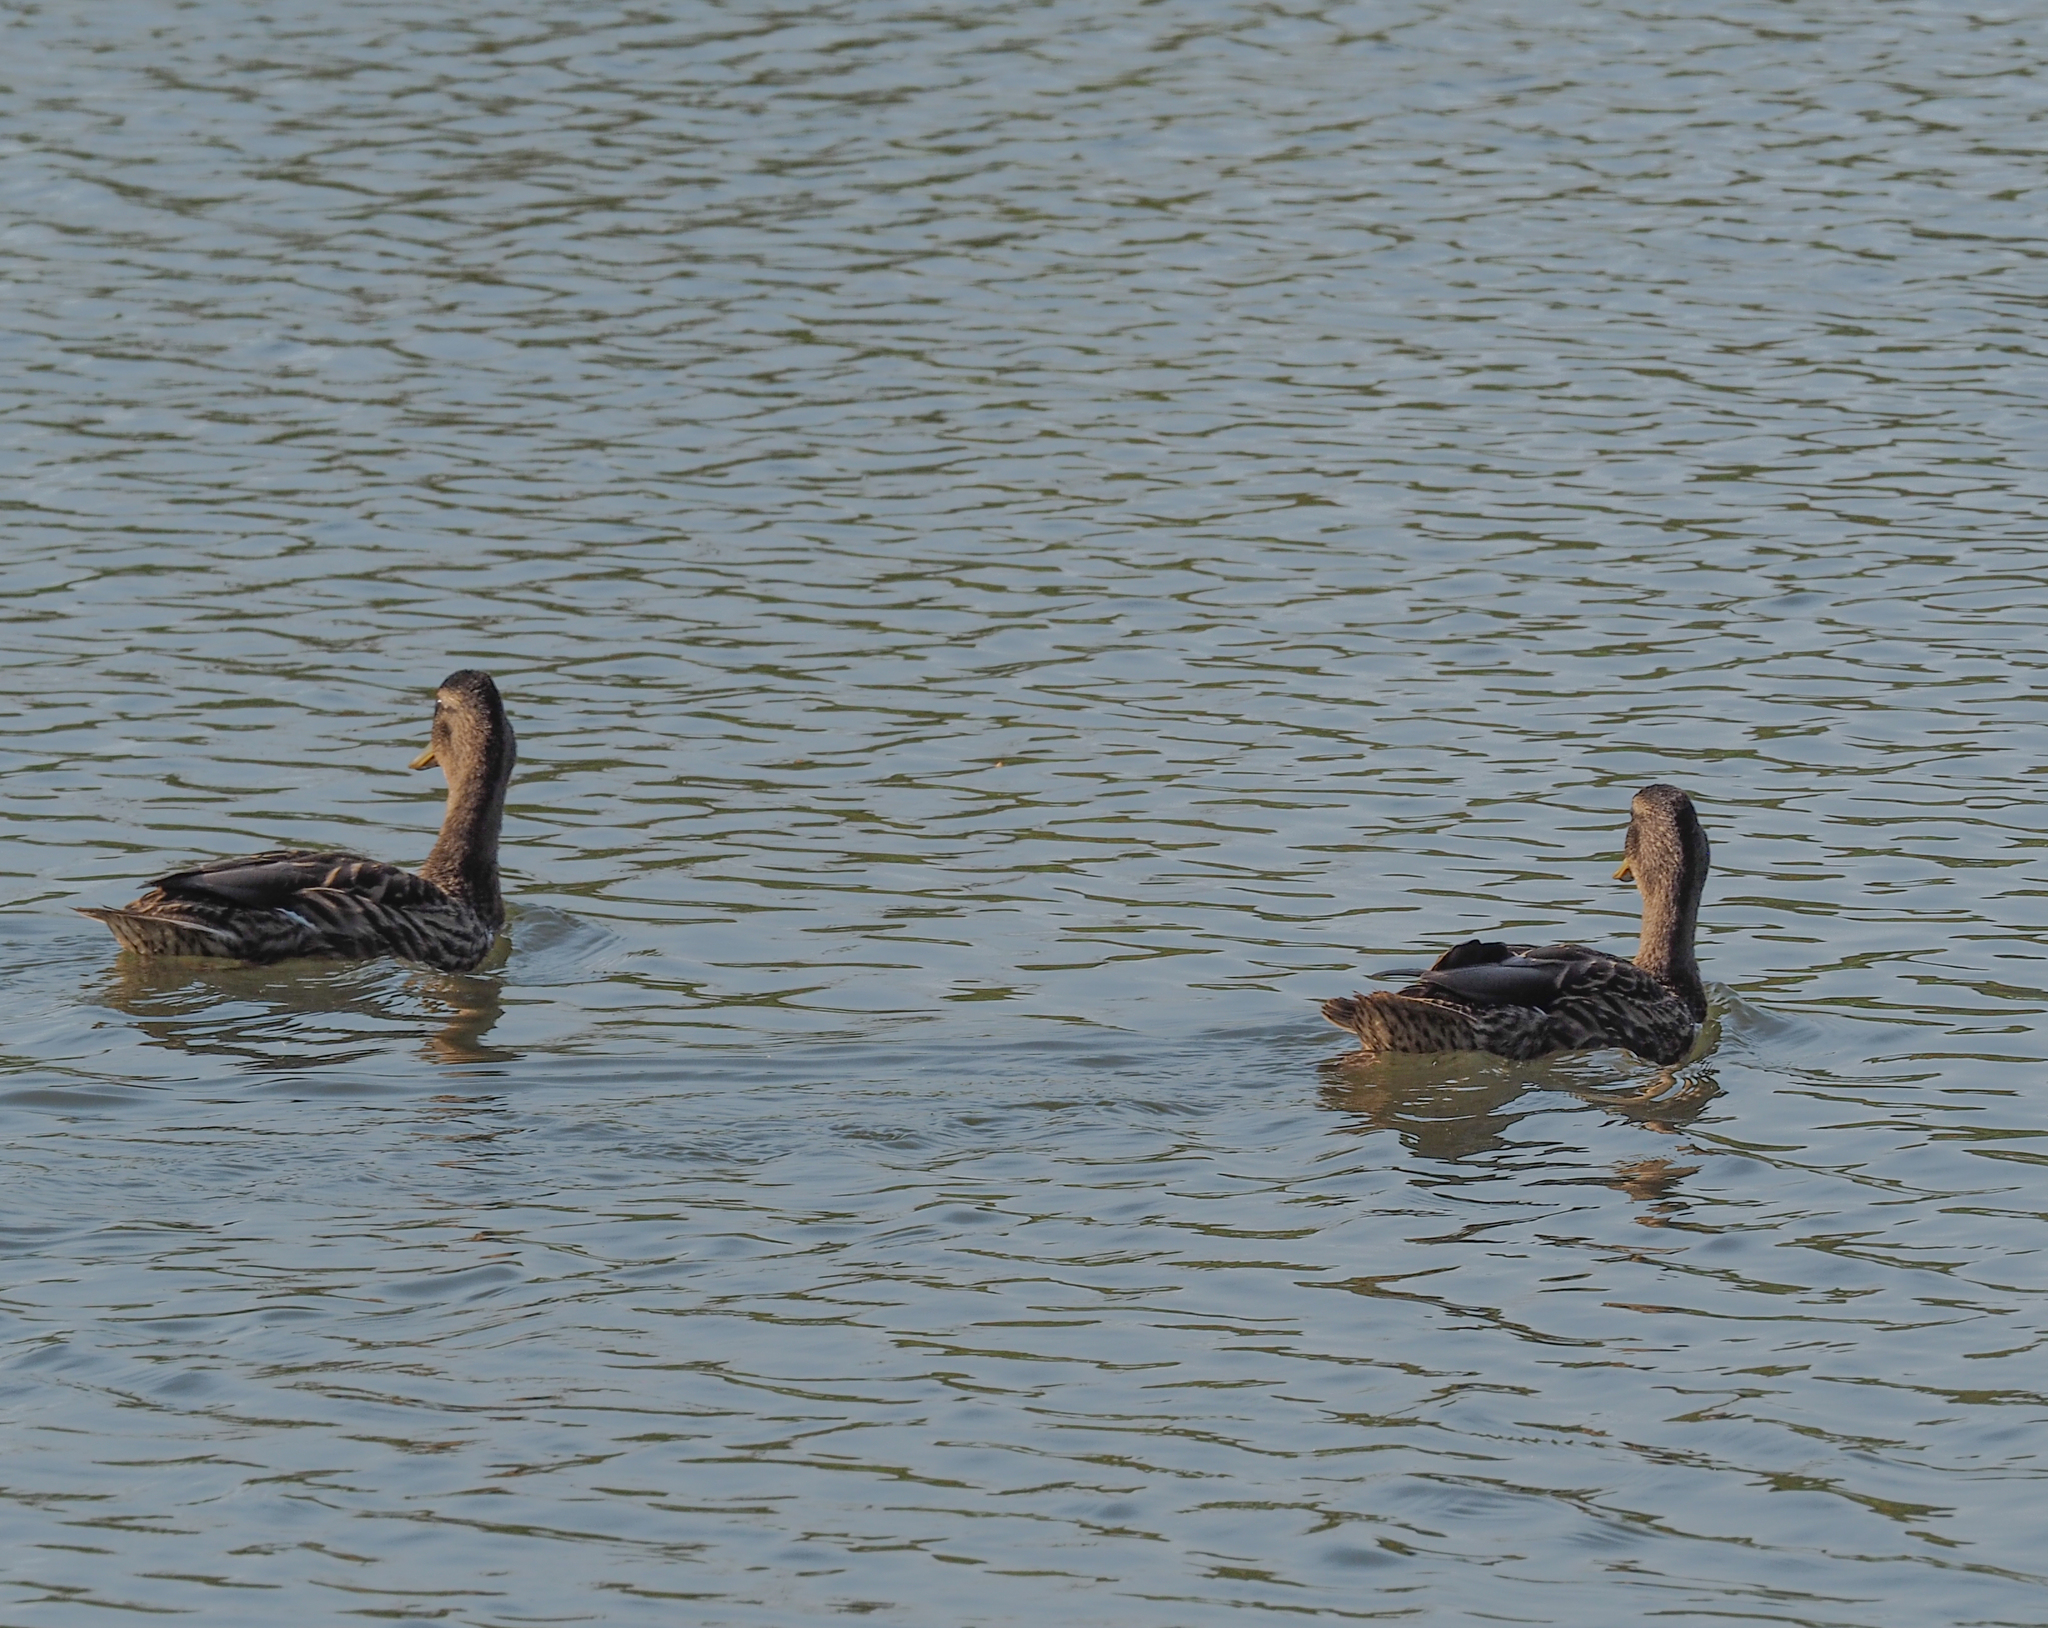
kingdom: Animalia
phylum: Chordata
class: Aves
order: Anseriformes
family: Anatidae
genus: Anas
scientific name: Anas platyrhynchos
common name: Mallard
